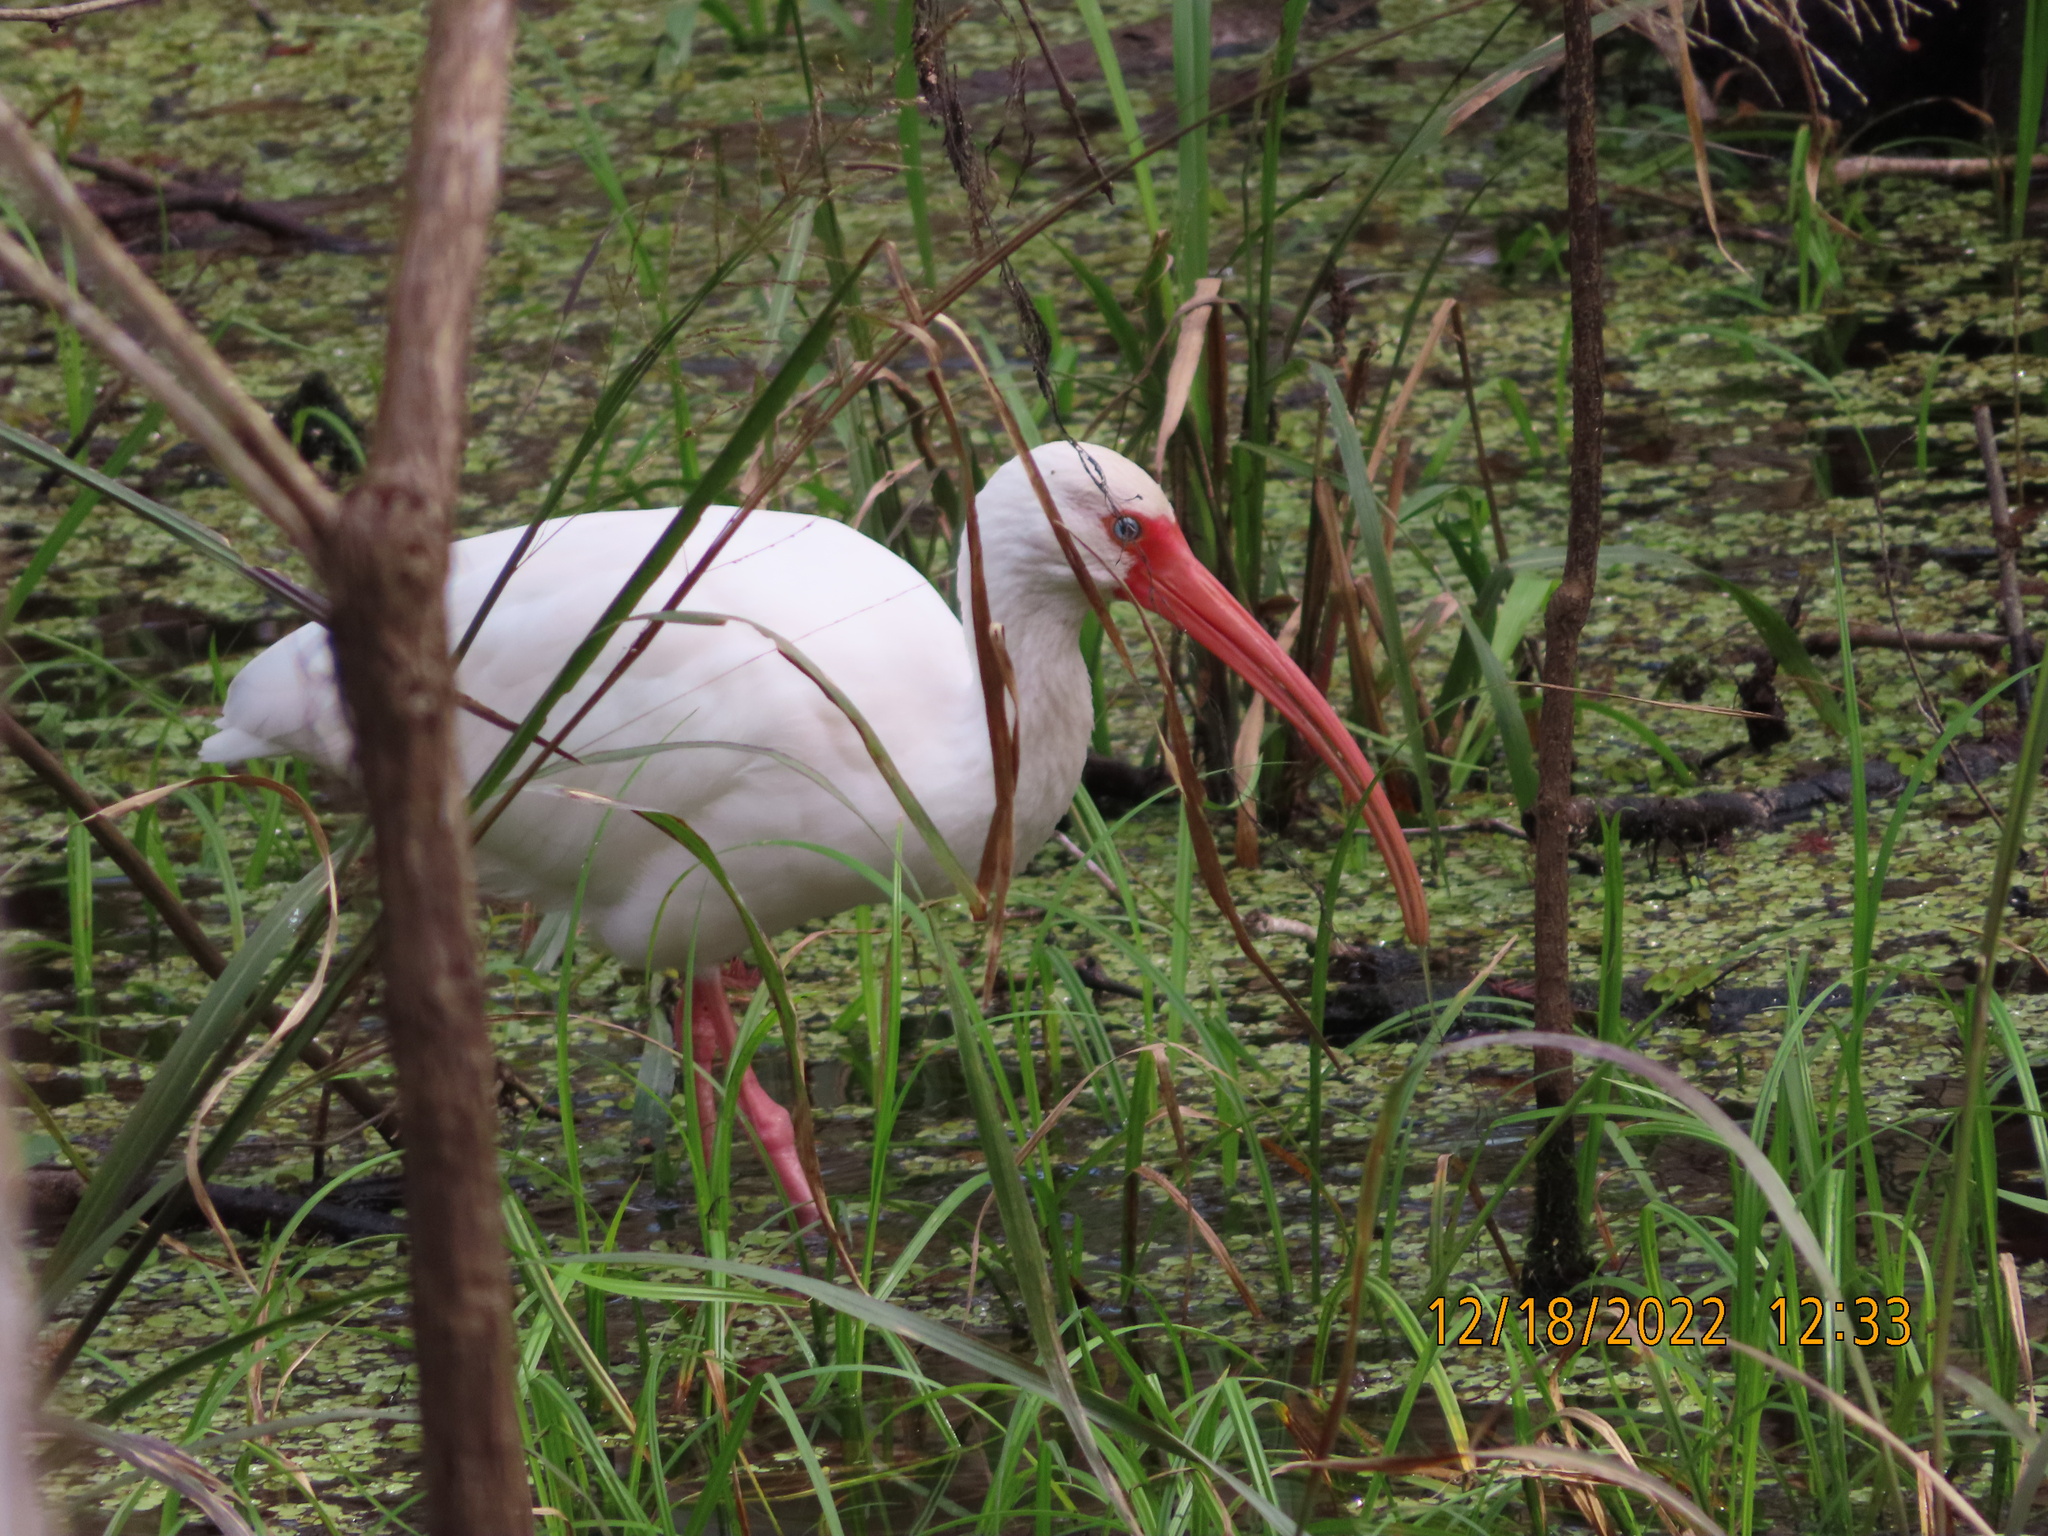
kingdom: Animalia
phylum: Chordata
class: Aves
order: Pelecaniformes
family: Threskiornithidae
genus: Eudocimus
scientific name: Eudocimus albus
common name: White ibis
